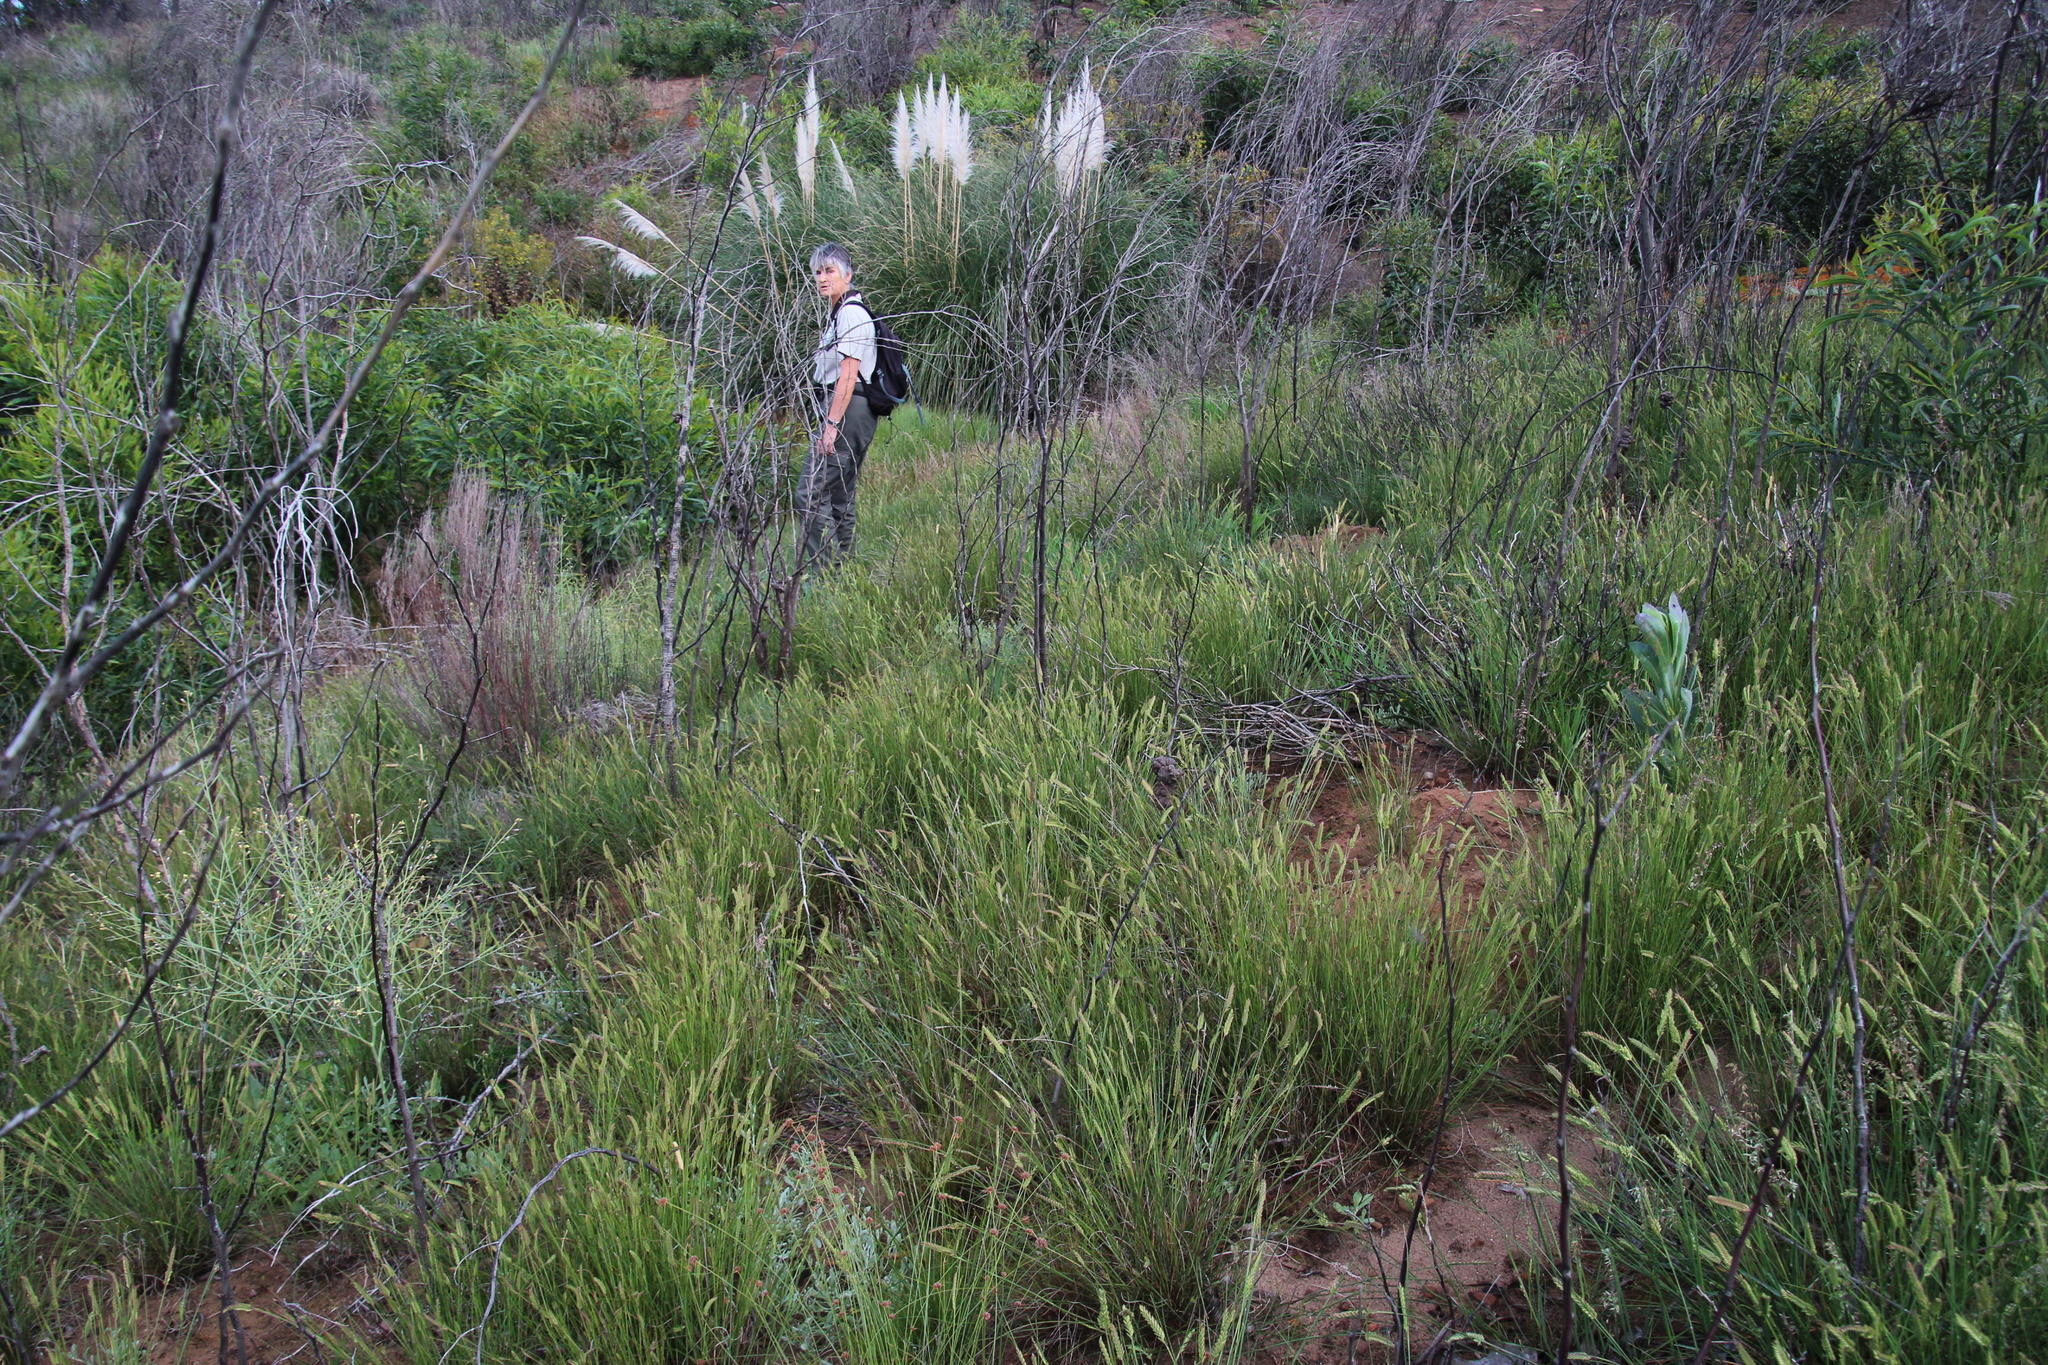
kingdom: Plantae
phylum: Tracheophyta
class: Liliopsida
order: Poales
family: Poaceae
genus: Cortaderia
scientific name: Cortaderia selloana
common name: Uruguayan pampas grass
